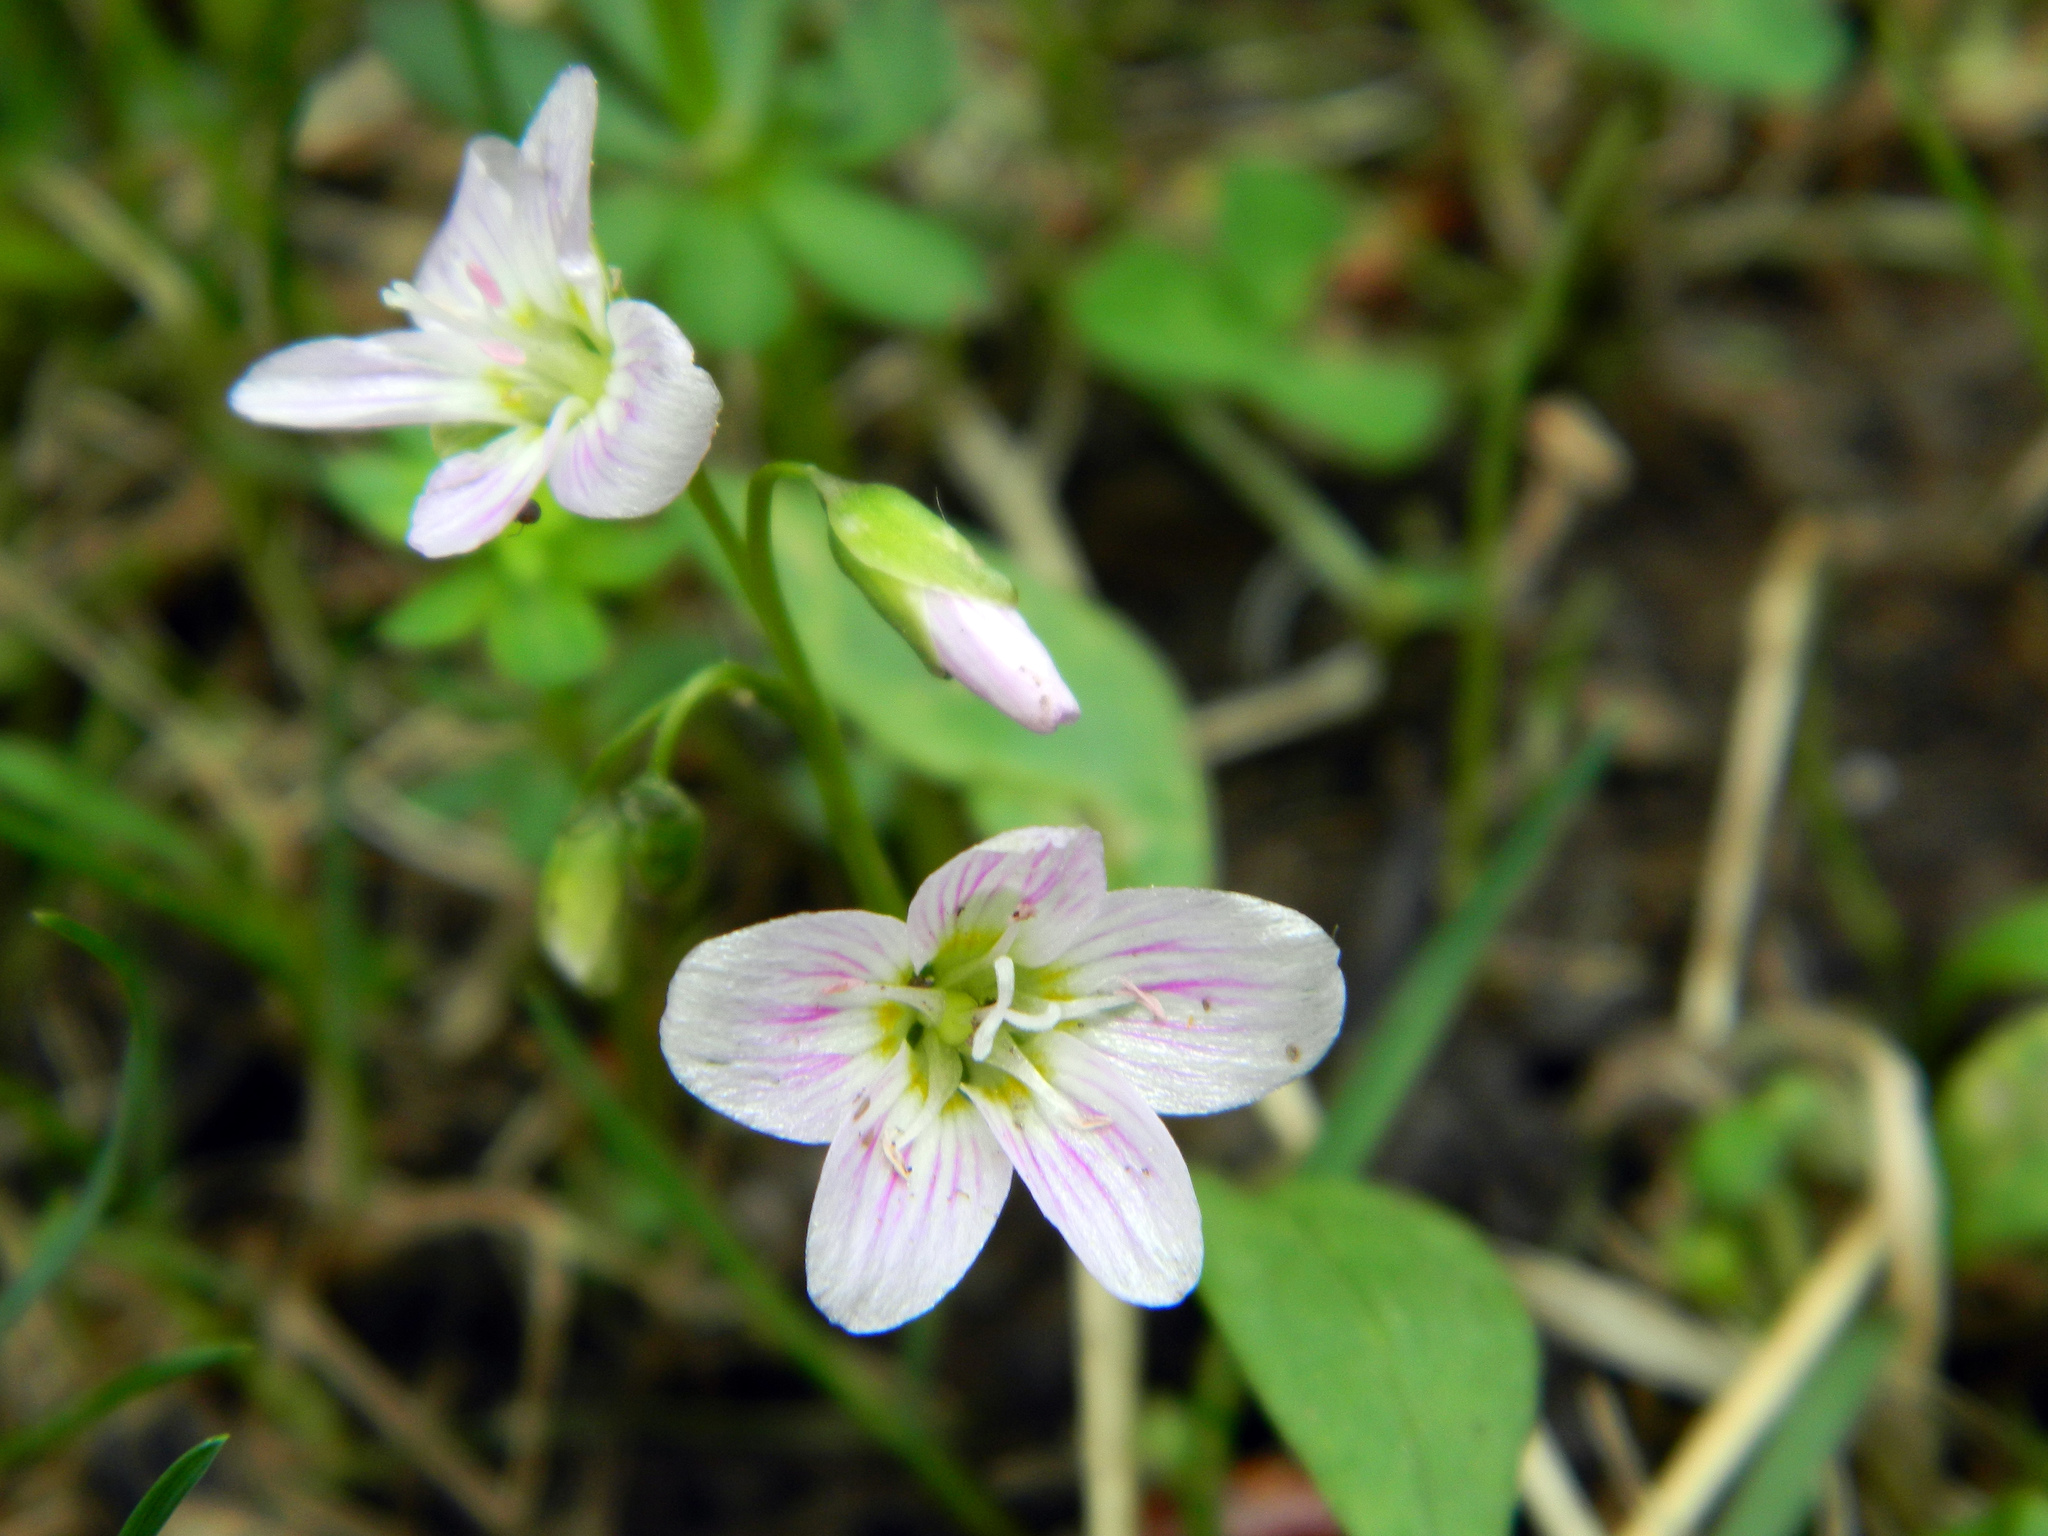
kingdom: Plantae
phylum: Tracheophyta
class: Magnoliopsida
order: Caryophyllales
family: Montiaceae
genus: Claytonia
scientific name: Claytonia caroliniana
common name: Carolina spring beauty
